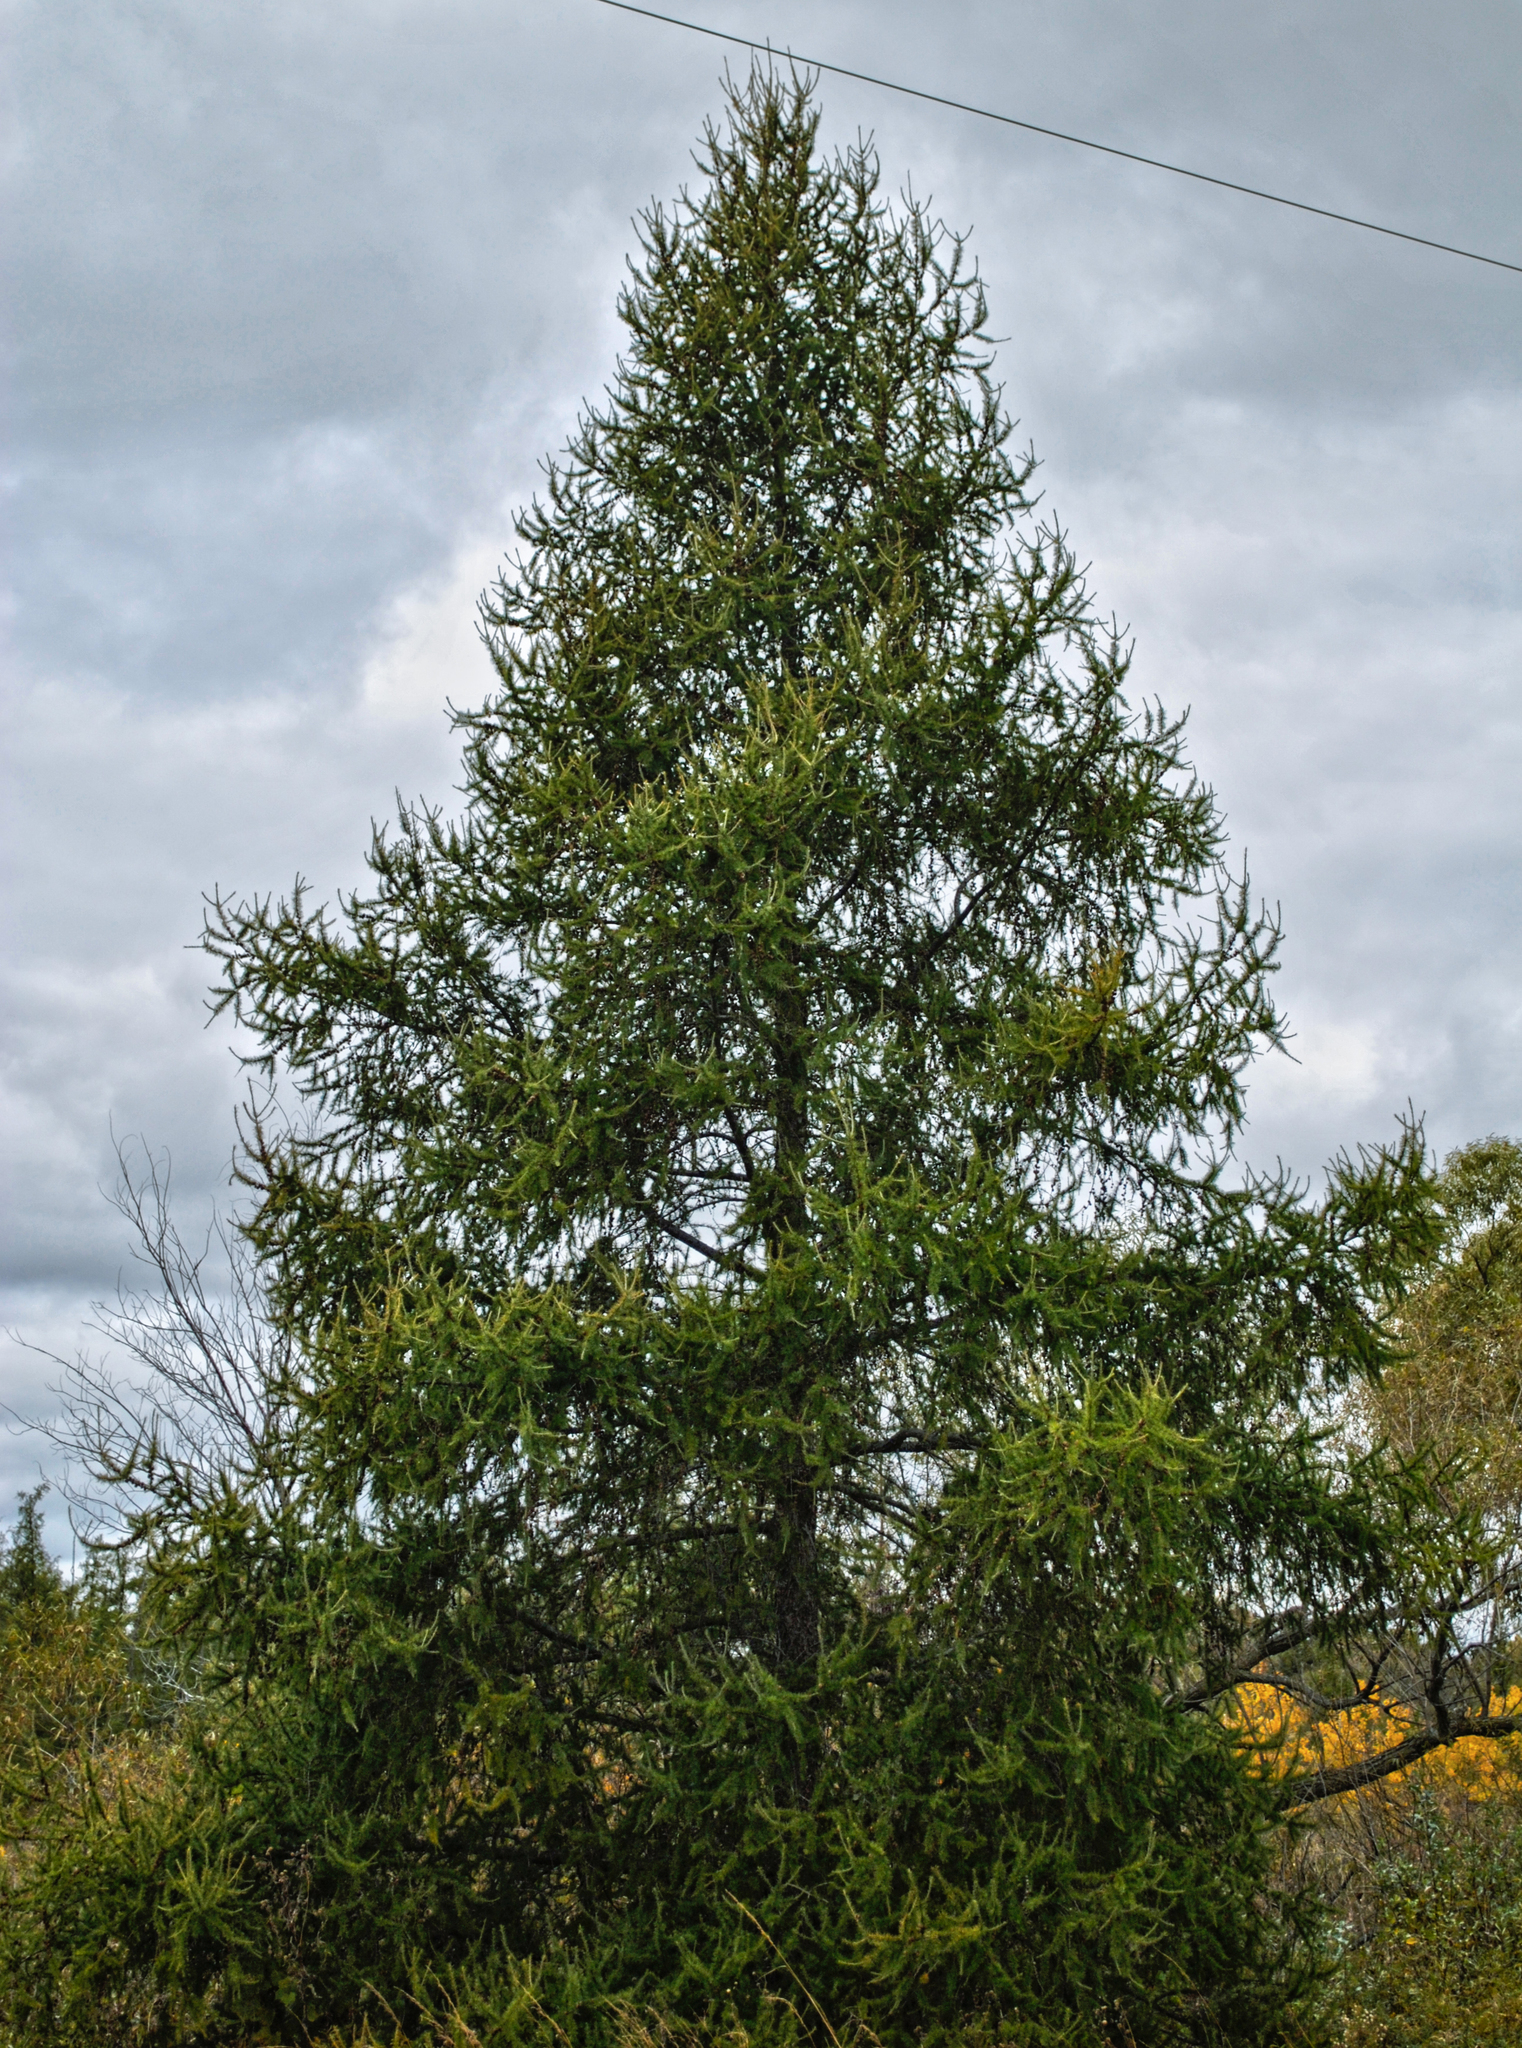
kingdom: Plantae
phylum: Tracheophyta
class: Pinopsida
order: Pinales
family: Pinaceae
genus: Larix
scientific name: Larix laricina
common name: American larch
